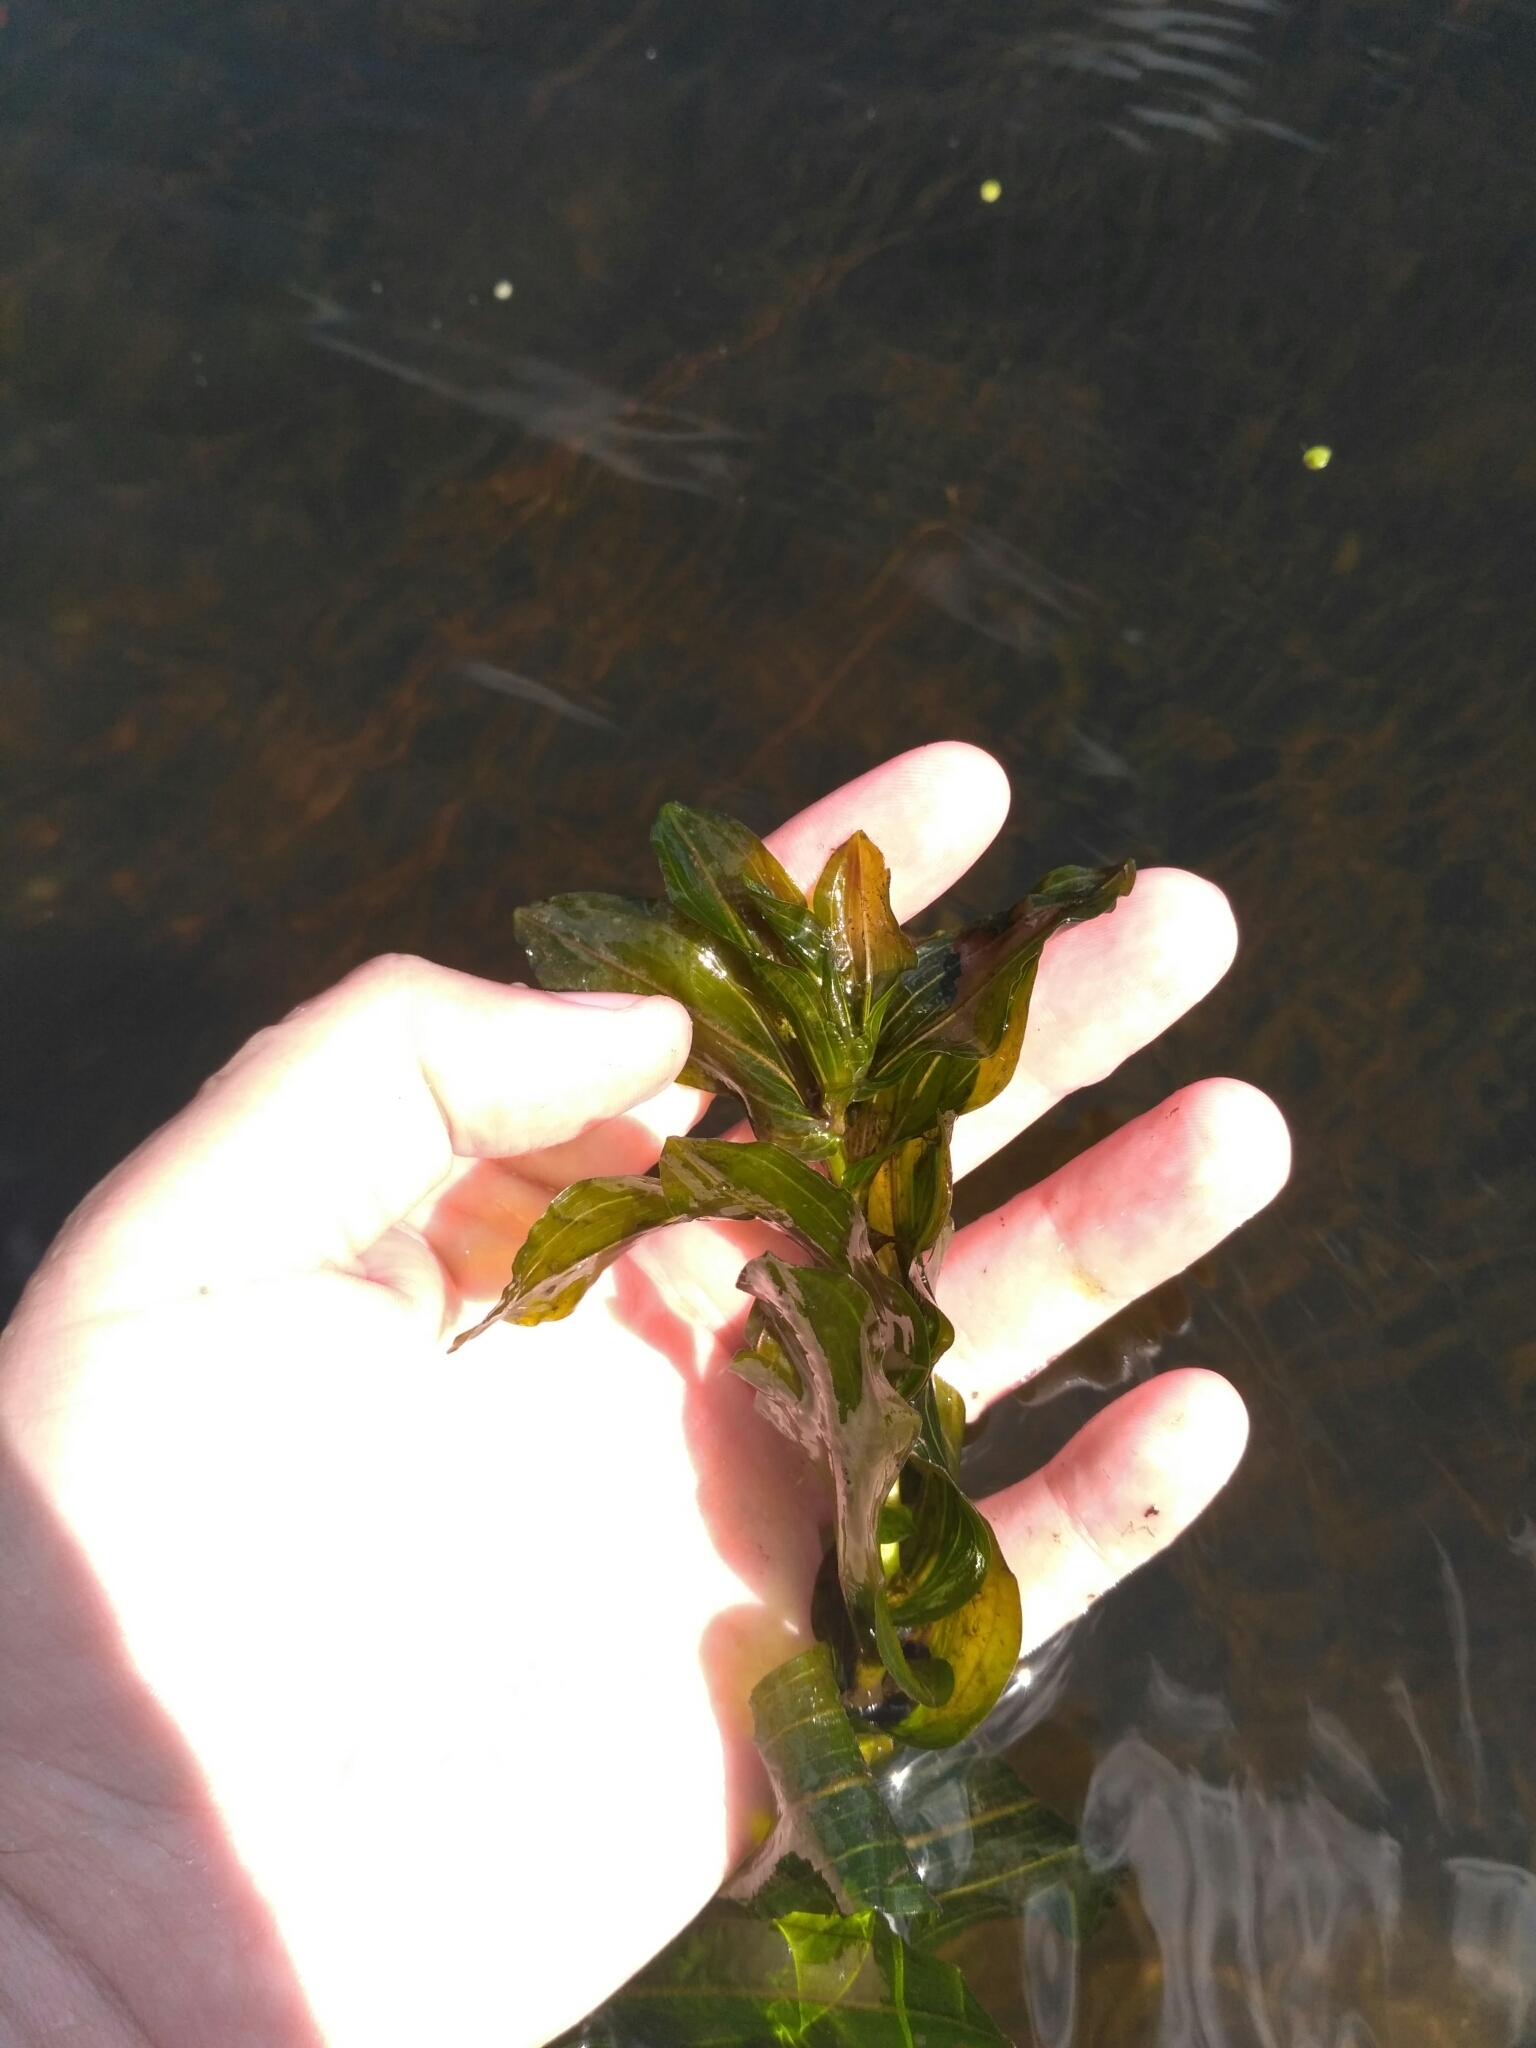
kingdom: Plantae
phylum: Tracheophyta
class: Liliopsida
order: Alismatales
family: Potamogetonaceae
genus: Potamogeton
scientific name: Potamogeton perfoliatus
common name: Perfoliate pondweed
